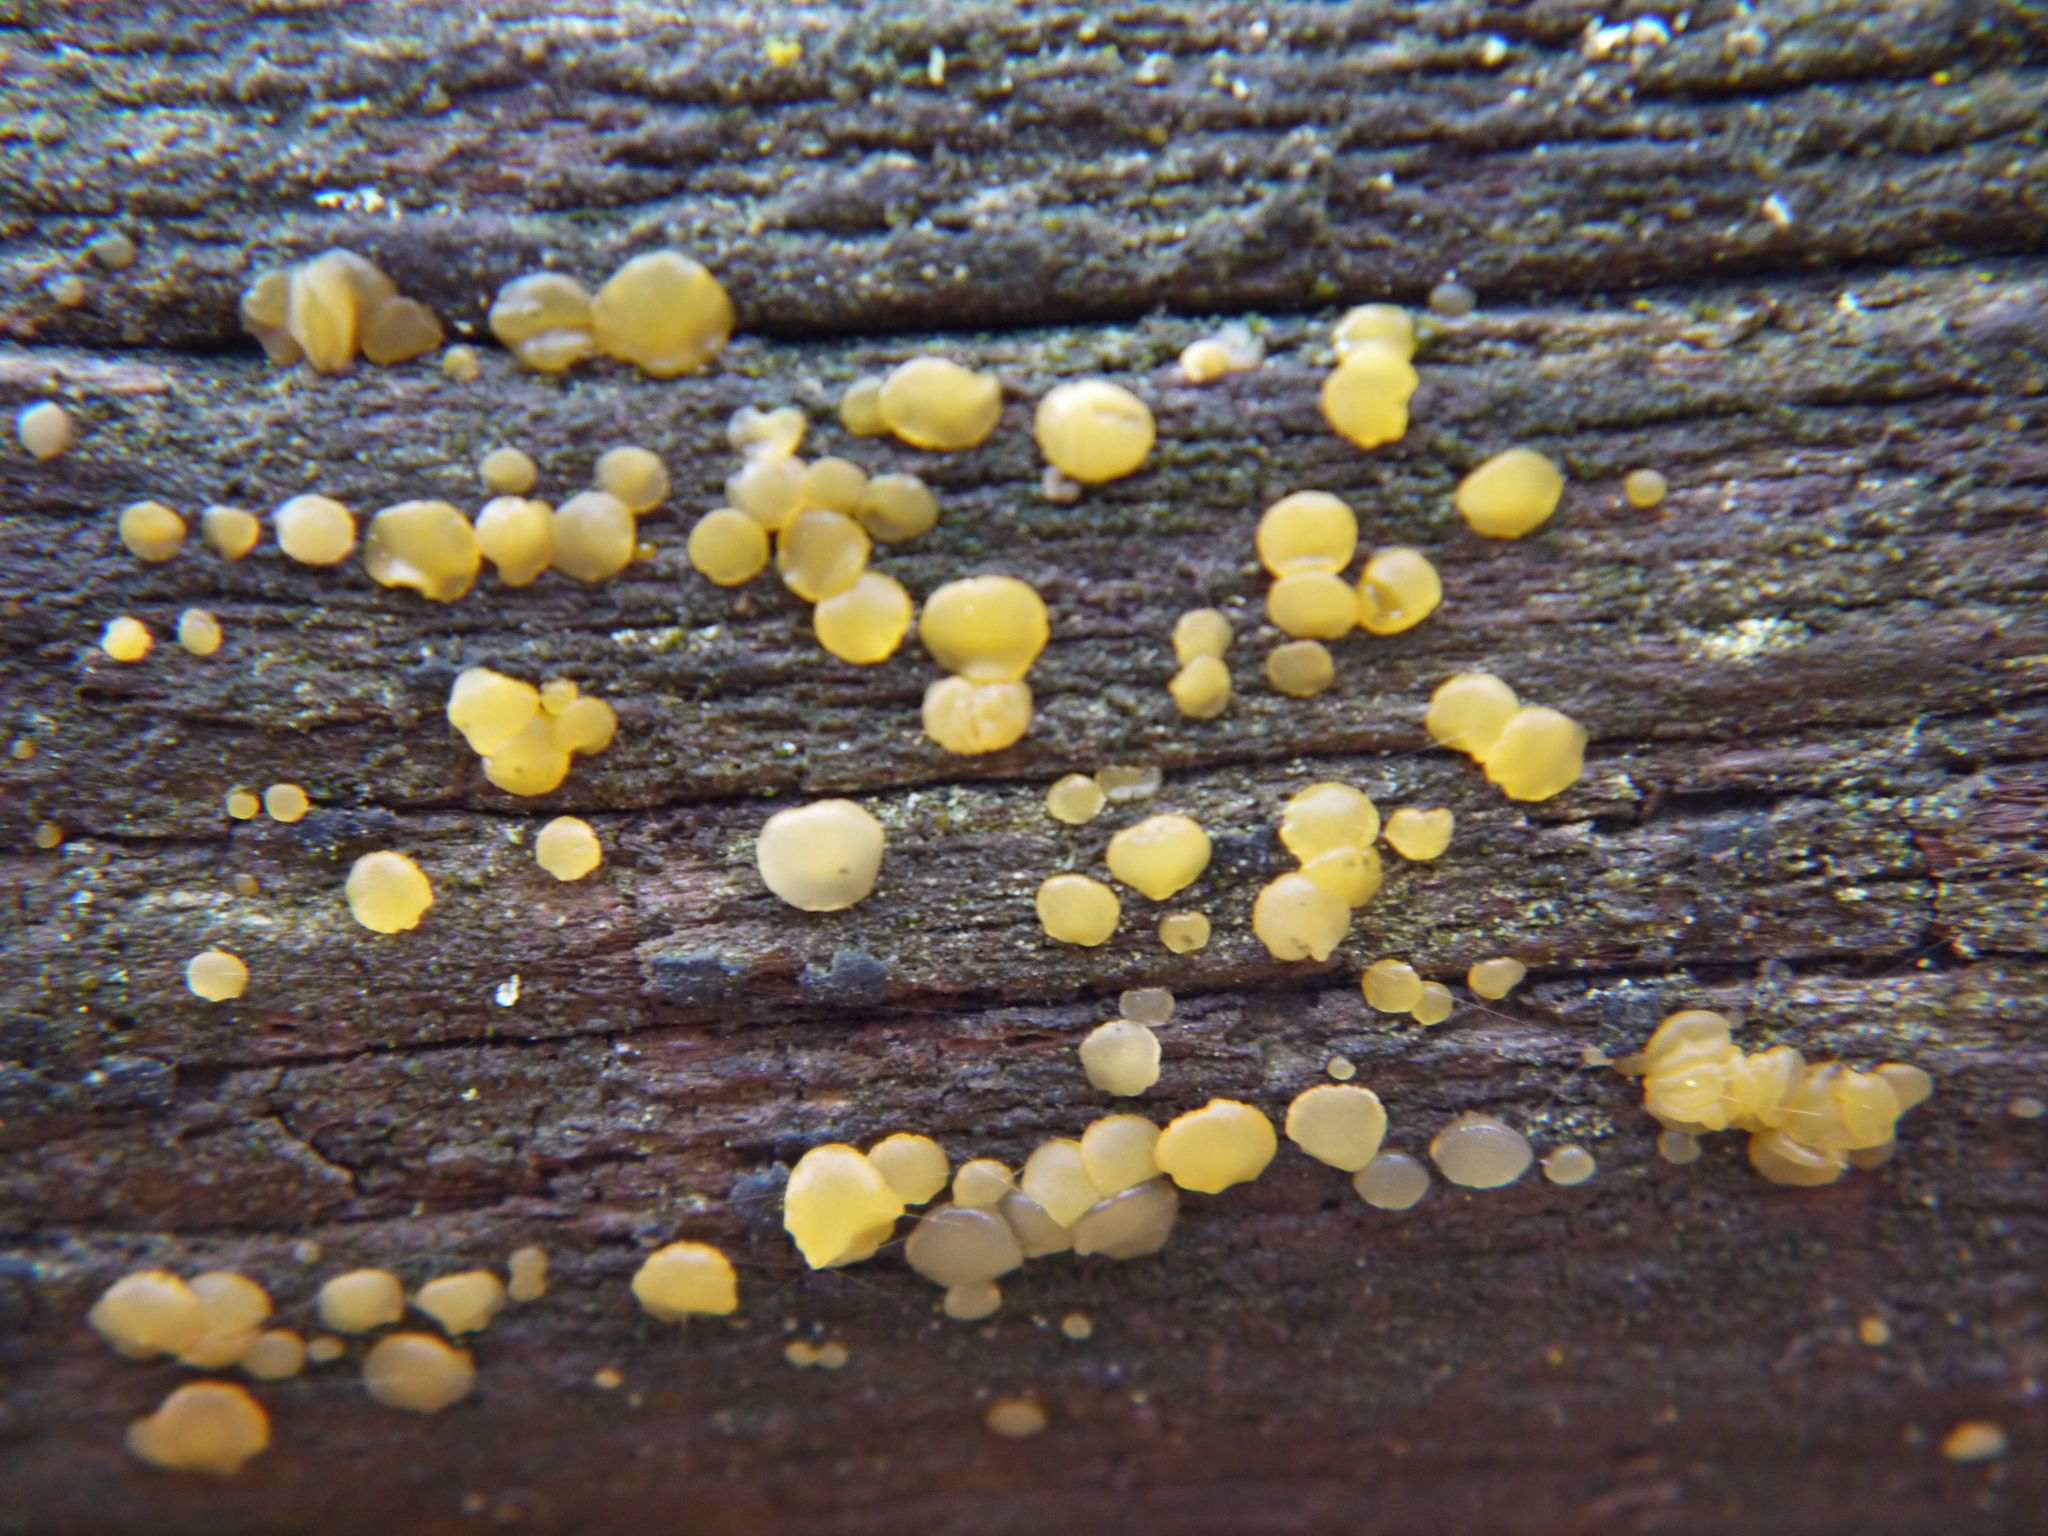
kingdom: Fungi
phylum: Basidiomycota
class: Dacrymycetes
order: Dacrymycetales
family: Dacrymycetaceae
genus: Dacrymyces
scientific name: Dacrymyces stillatus
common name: Common jelly spot
